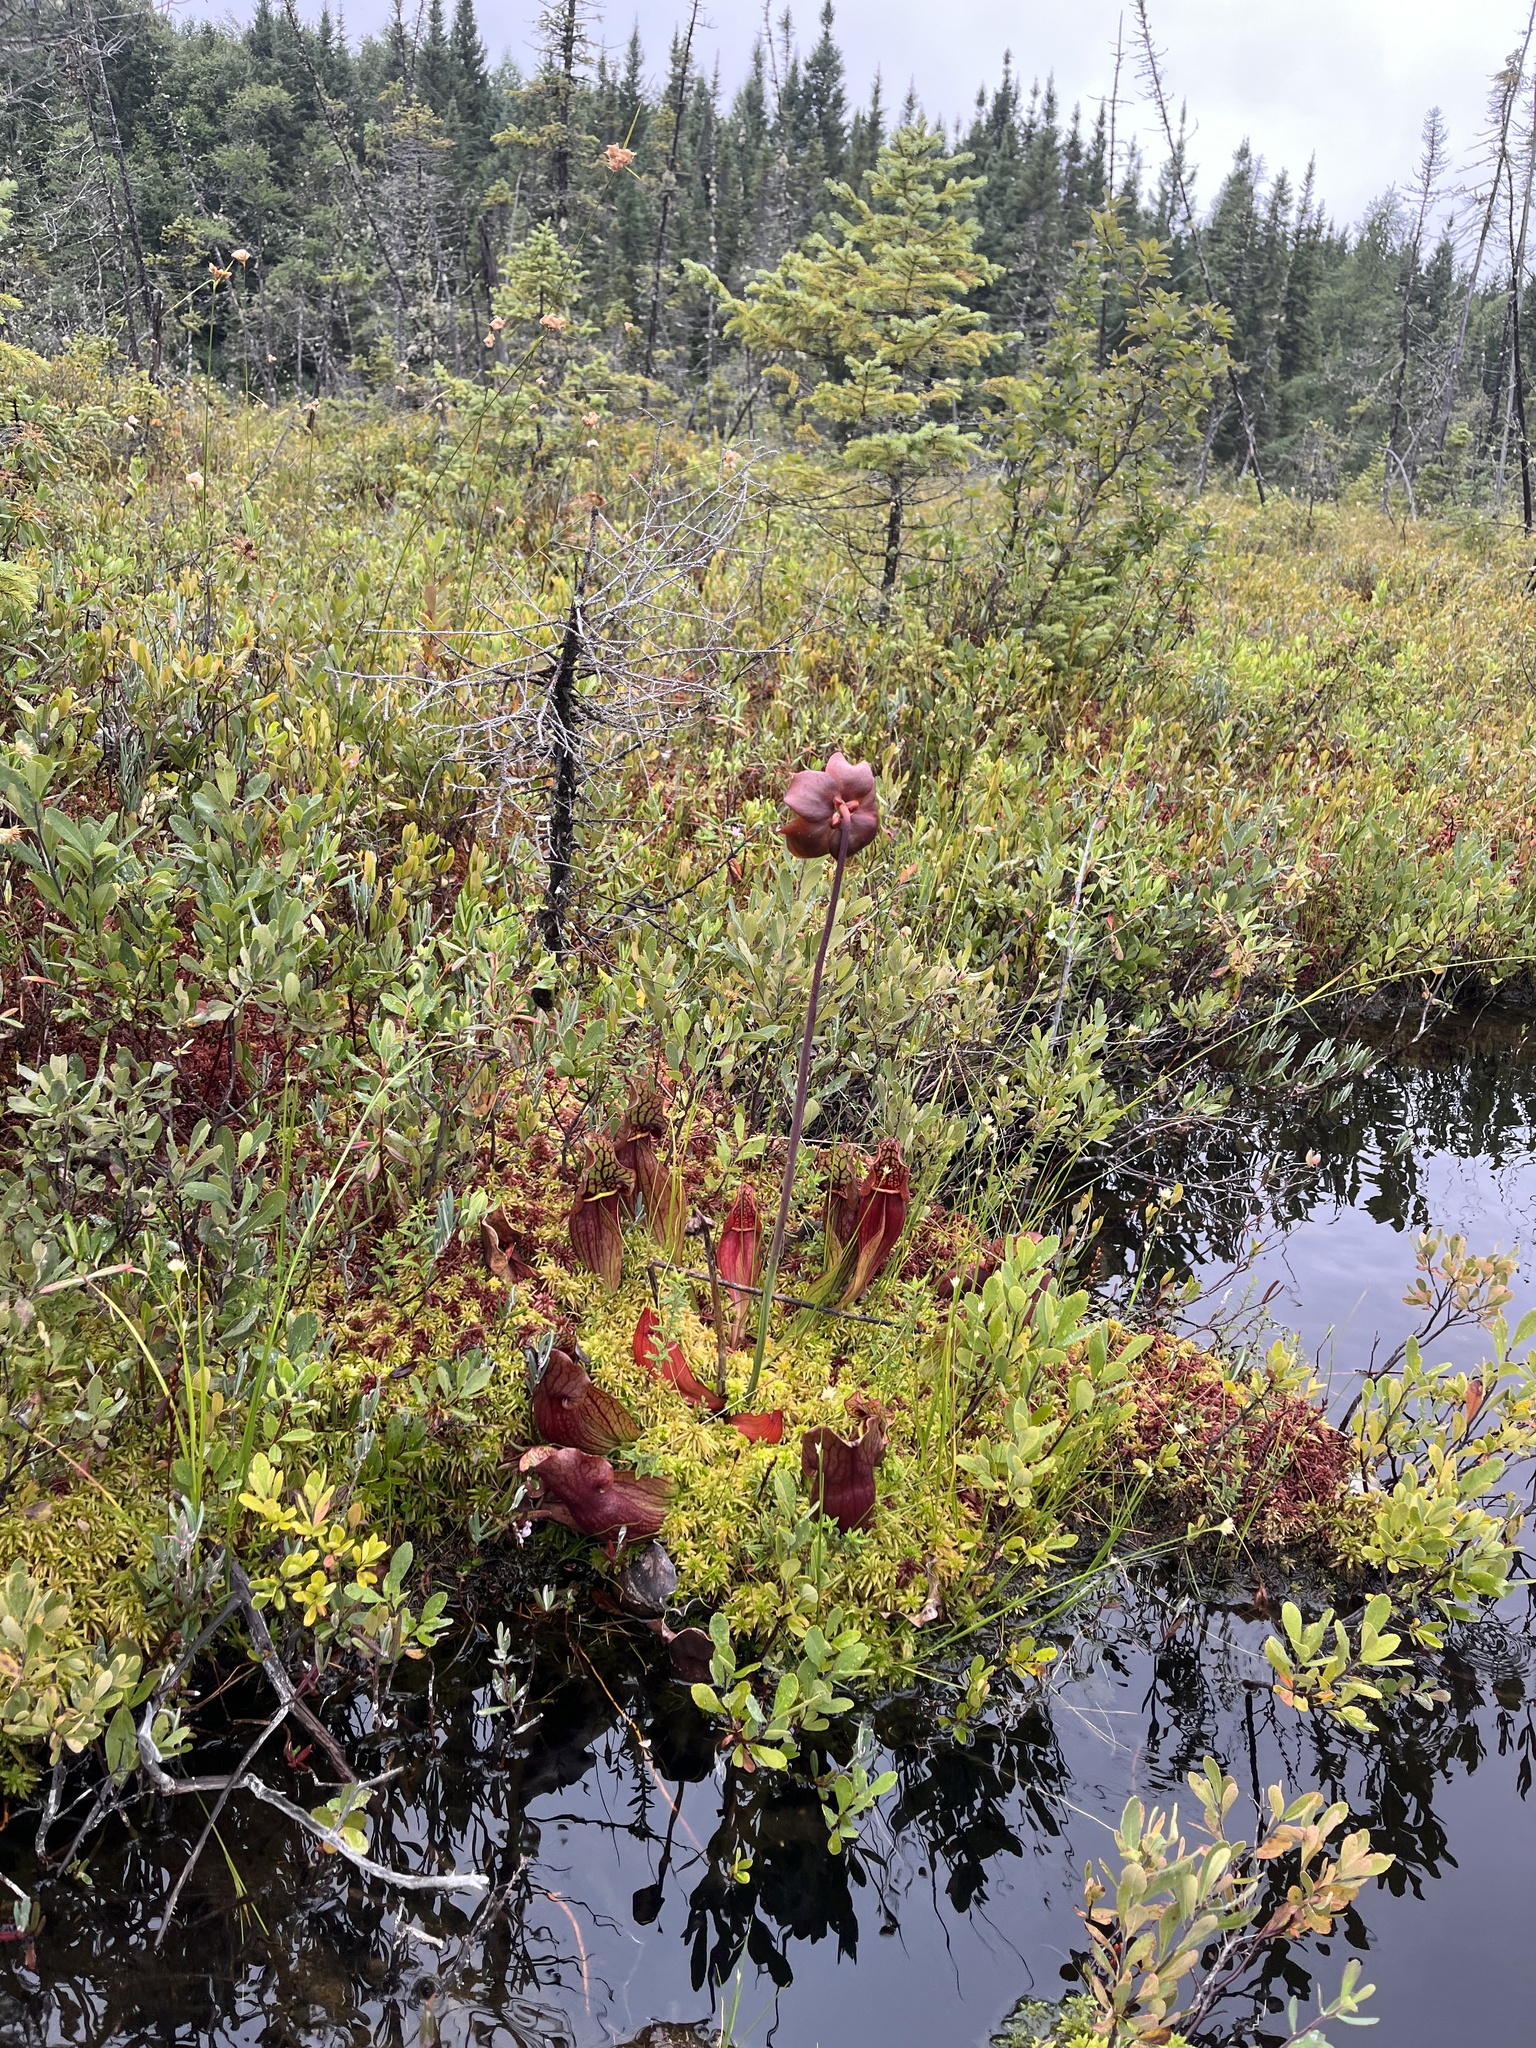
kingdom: Plantae
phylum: Tracheophyta
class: Magnoliopsida
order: Ericales
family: Sarraceniaceae
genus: Sarracenia
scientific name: Sarracenia purpurea
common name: Pitcherplant
